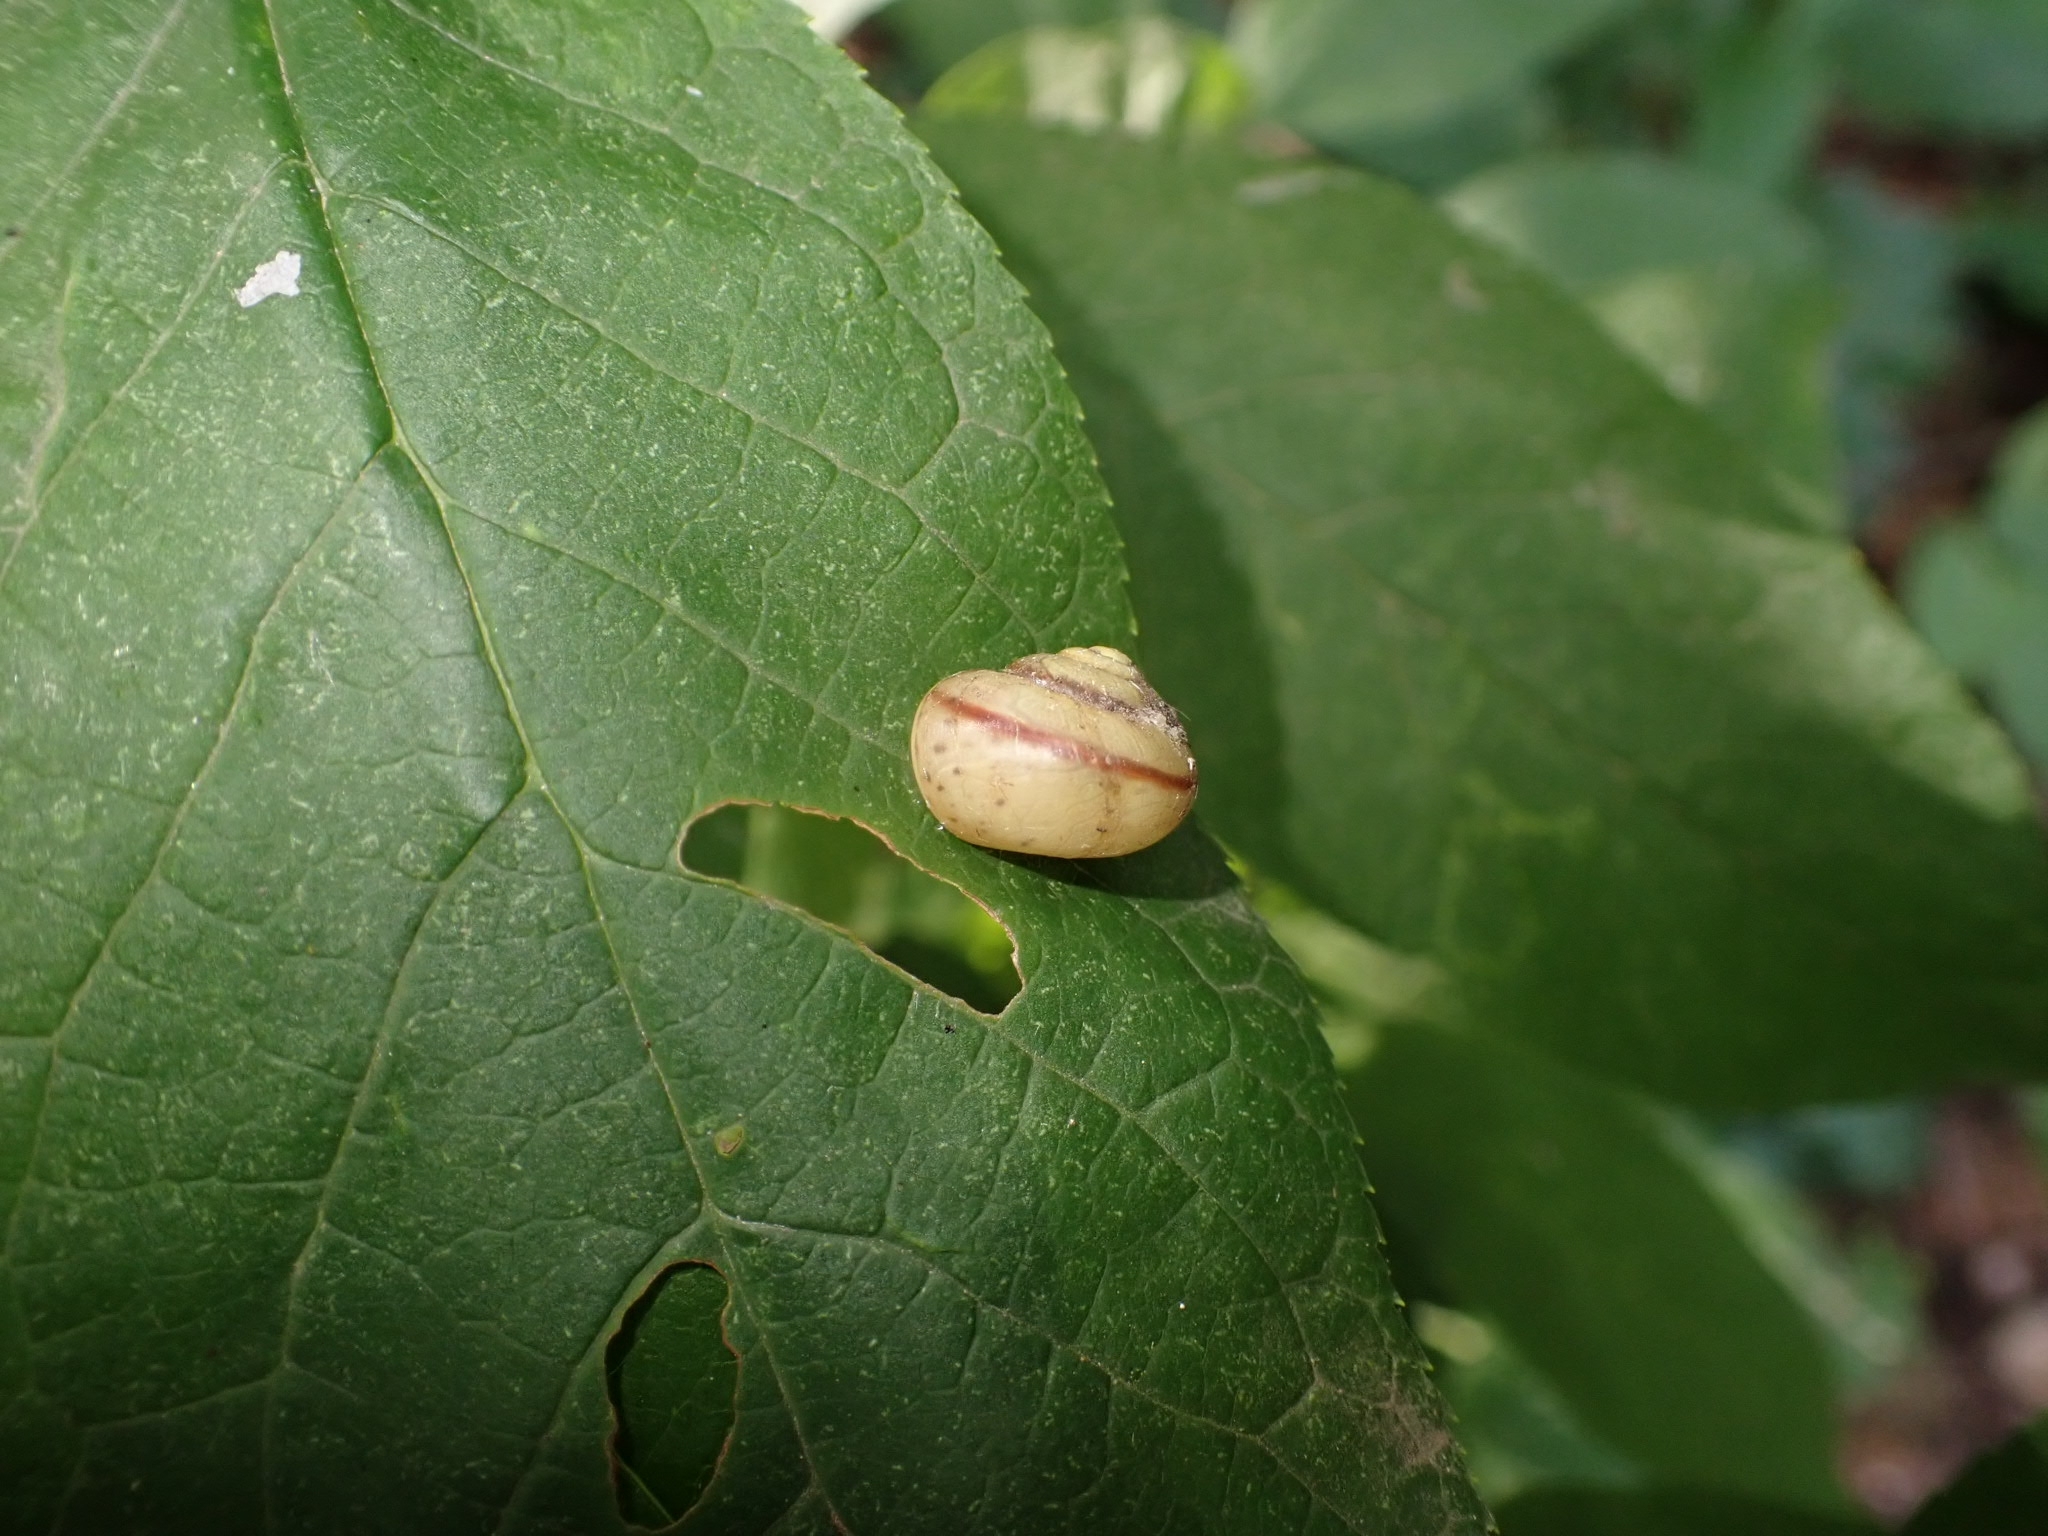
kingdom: Animalia
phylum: Mollusca
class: Gastropoda
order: Stylommatophora
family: Camaenidae
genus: Fruticicola
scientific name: Fruticicola fruticum
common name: Bush snail
